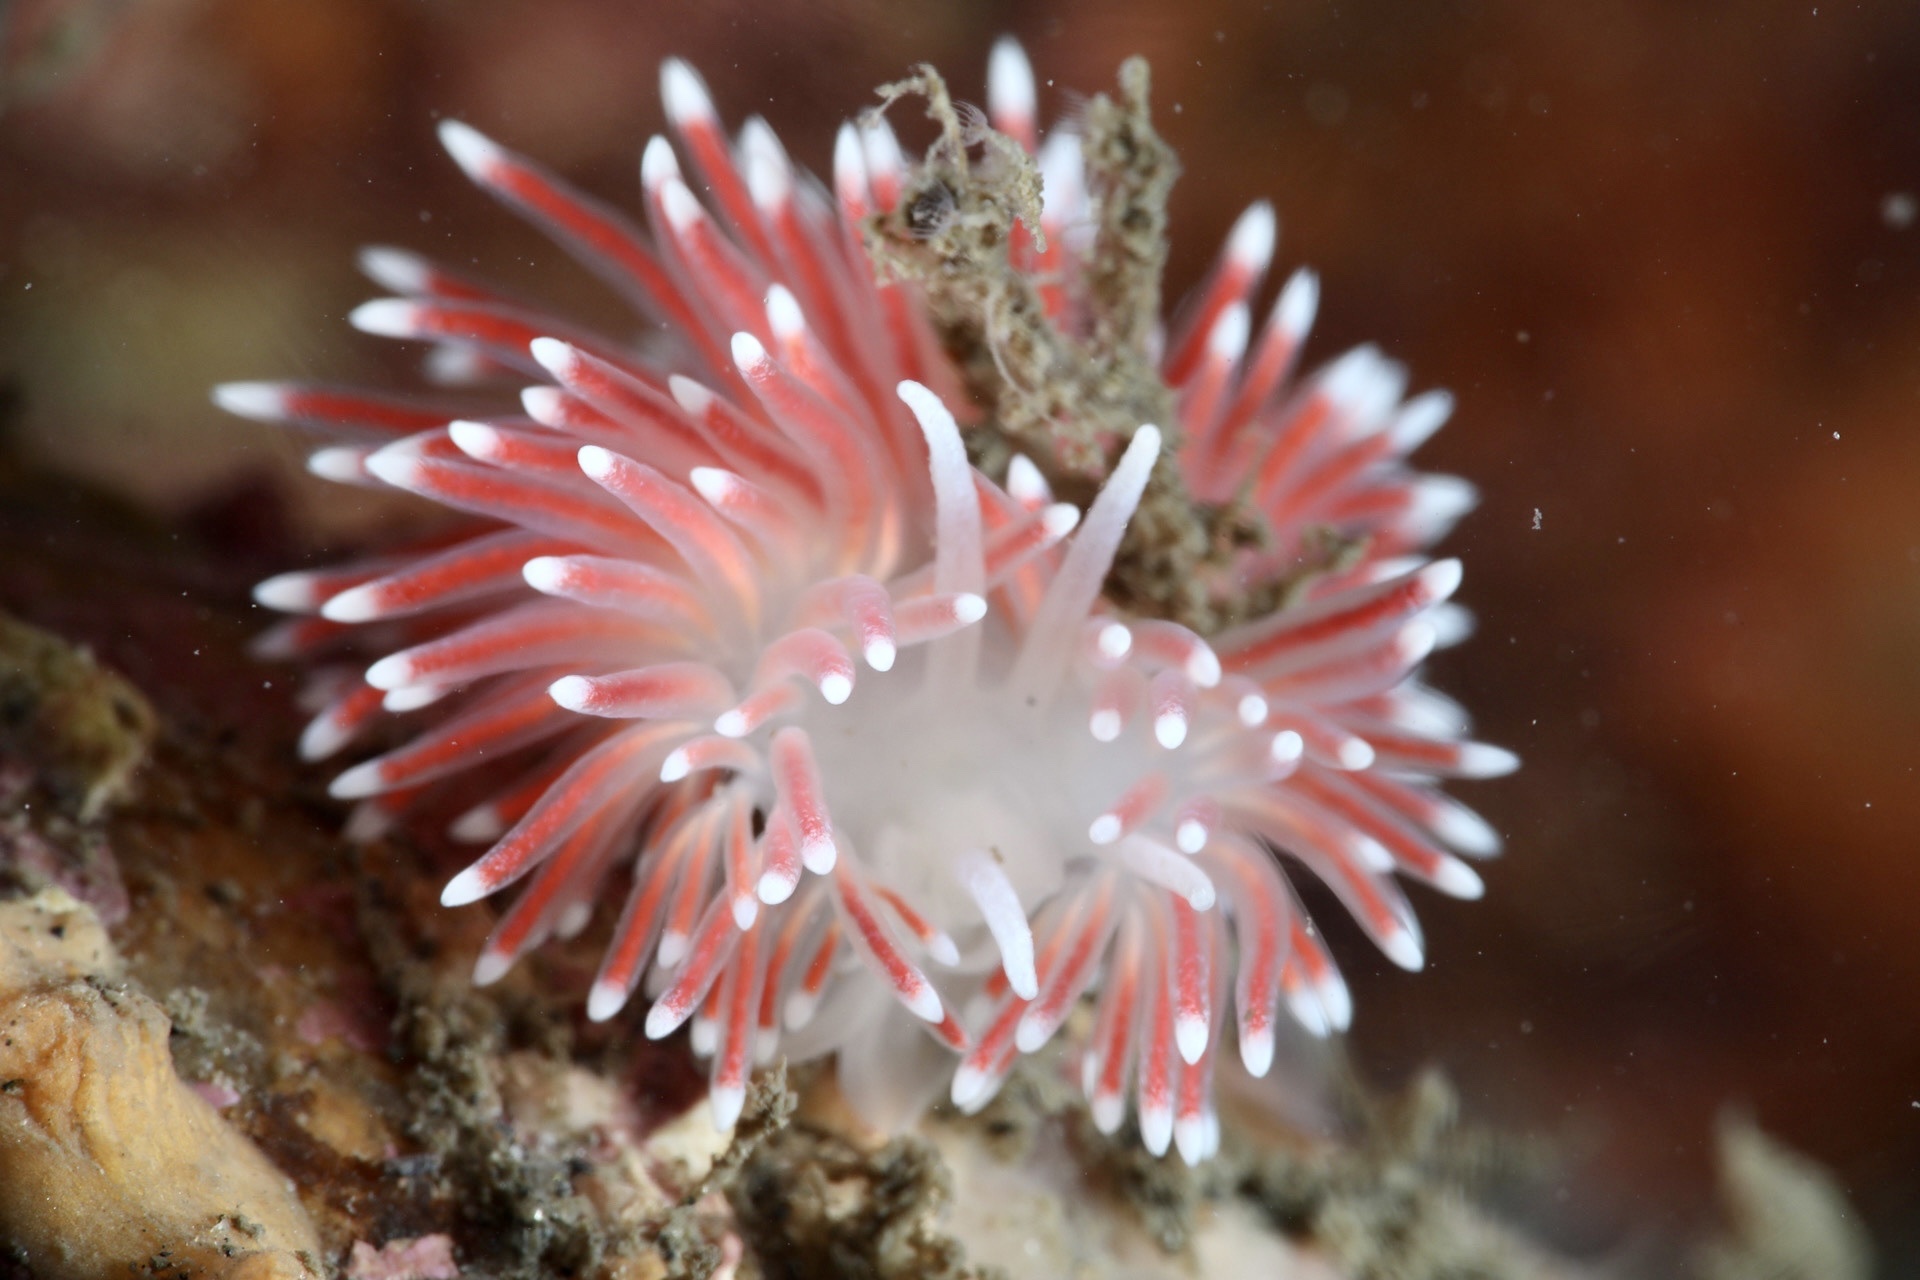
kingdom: Animalia
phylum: Mollusca
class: Gastropoda
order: Nudibranchia
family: Flabellinidae
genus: Carronella
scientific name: Carronella pellucida
